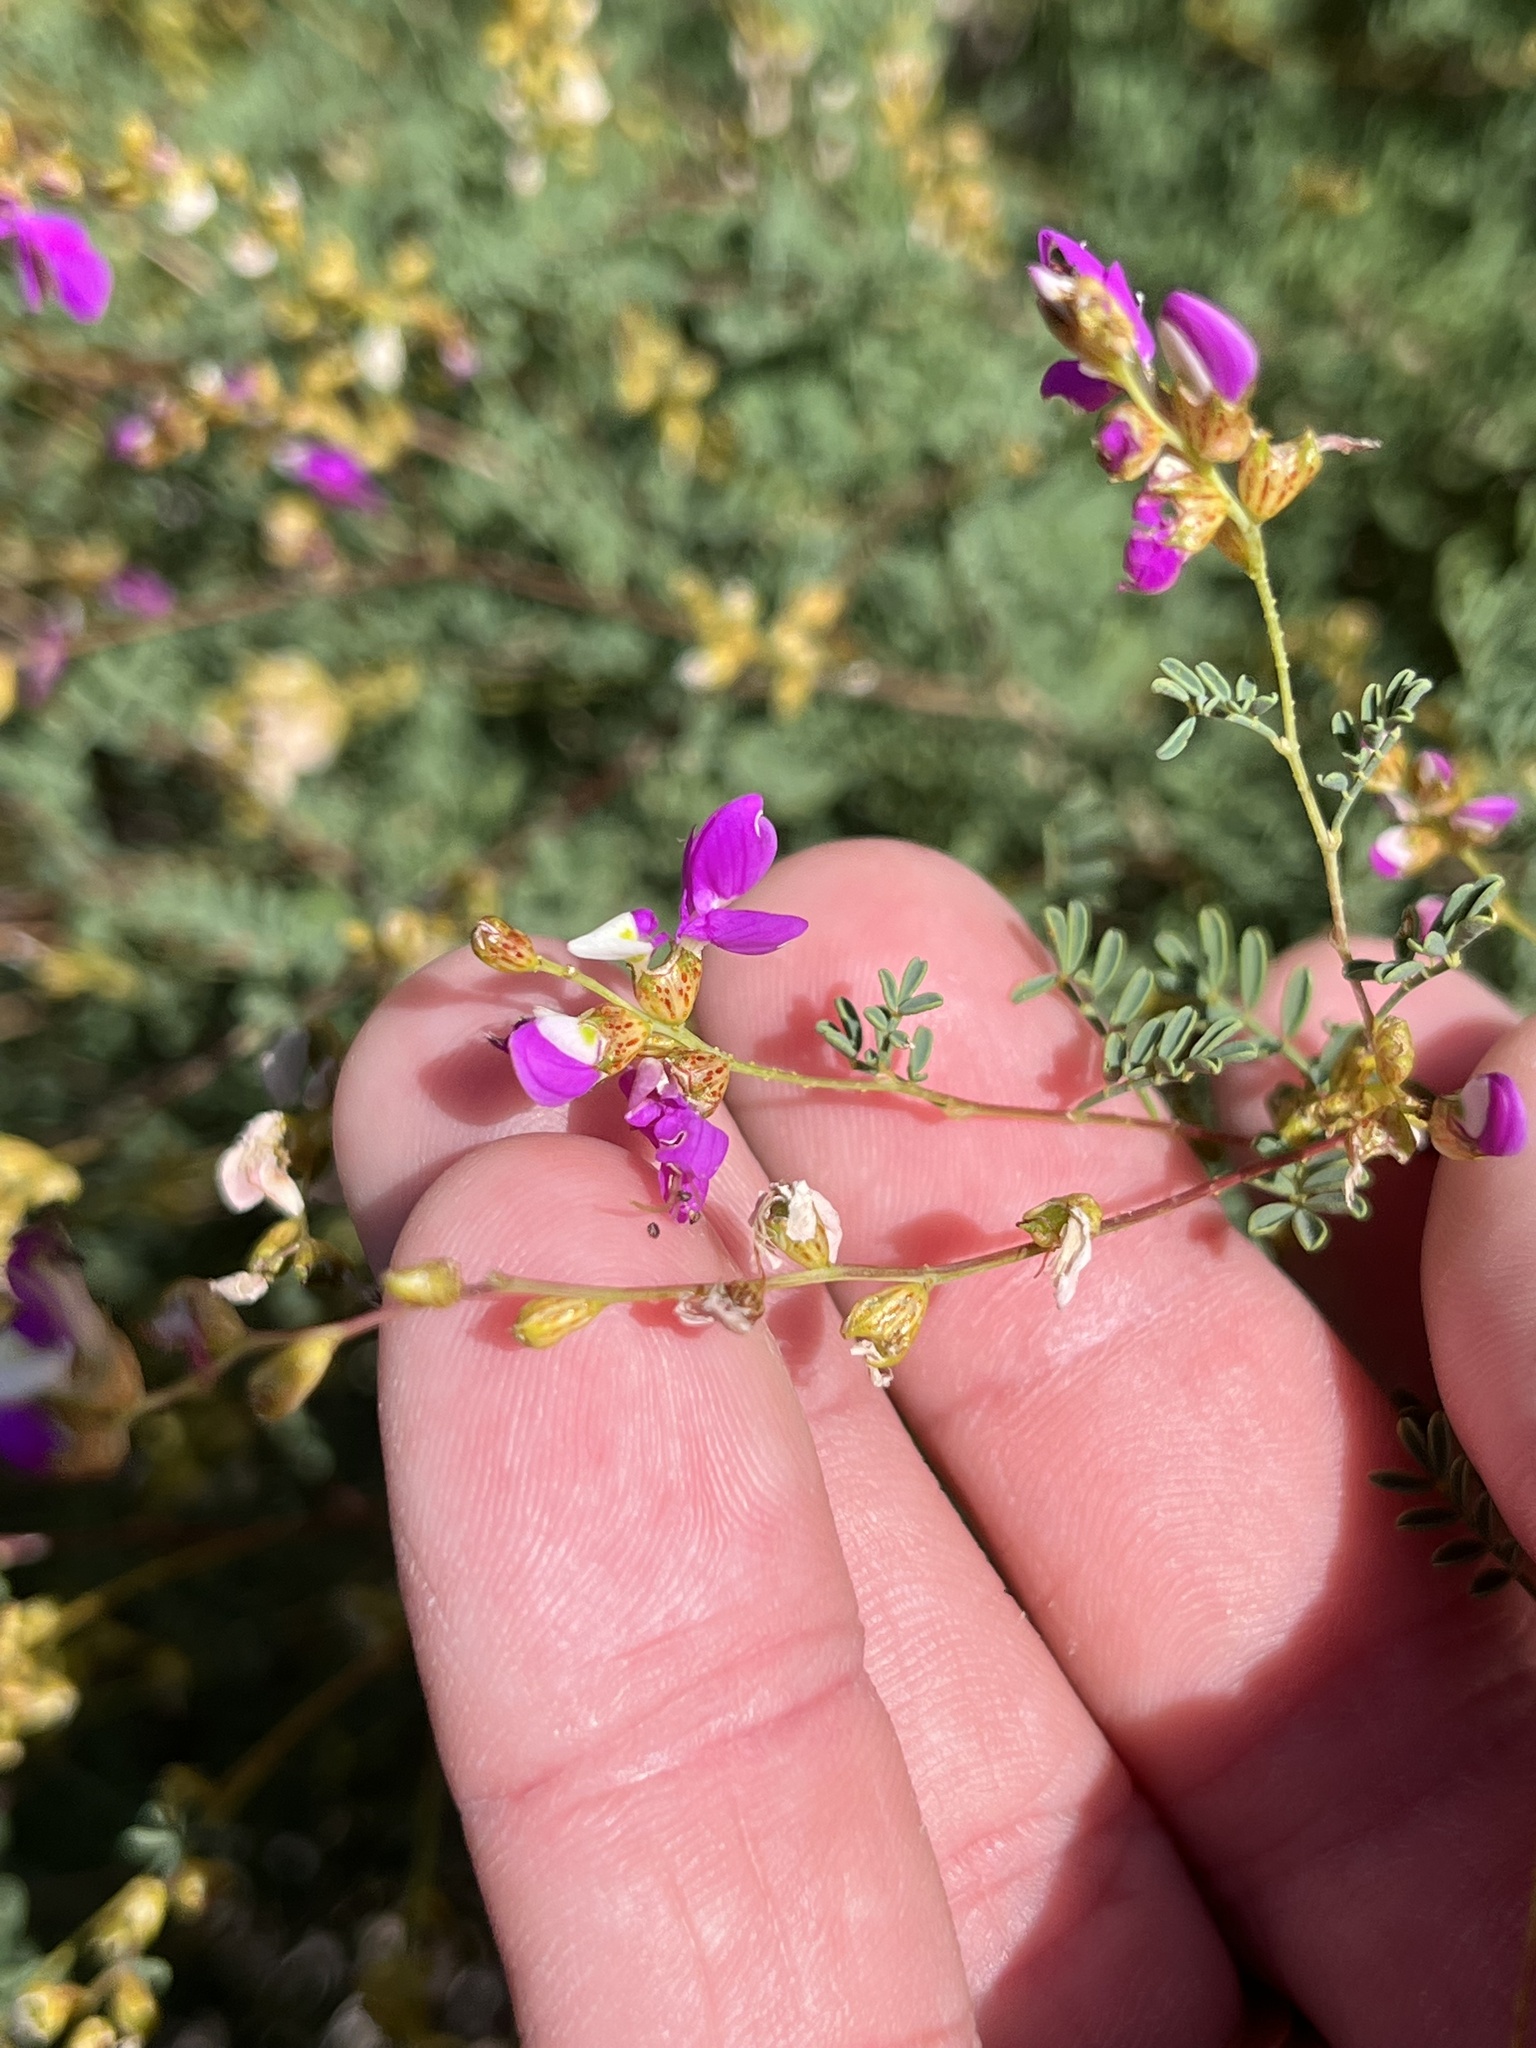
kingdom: Plantae
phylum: Tracheophyta
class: Magnoliopsida
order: Fabales
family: Fabaceae
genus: Dalea
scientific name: Dalea frutescens
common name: Black dalea
